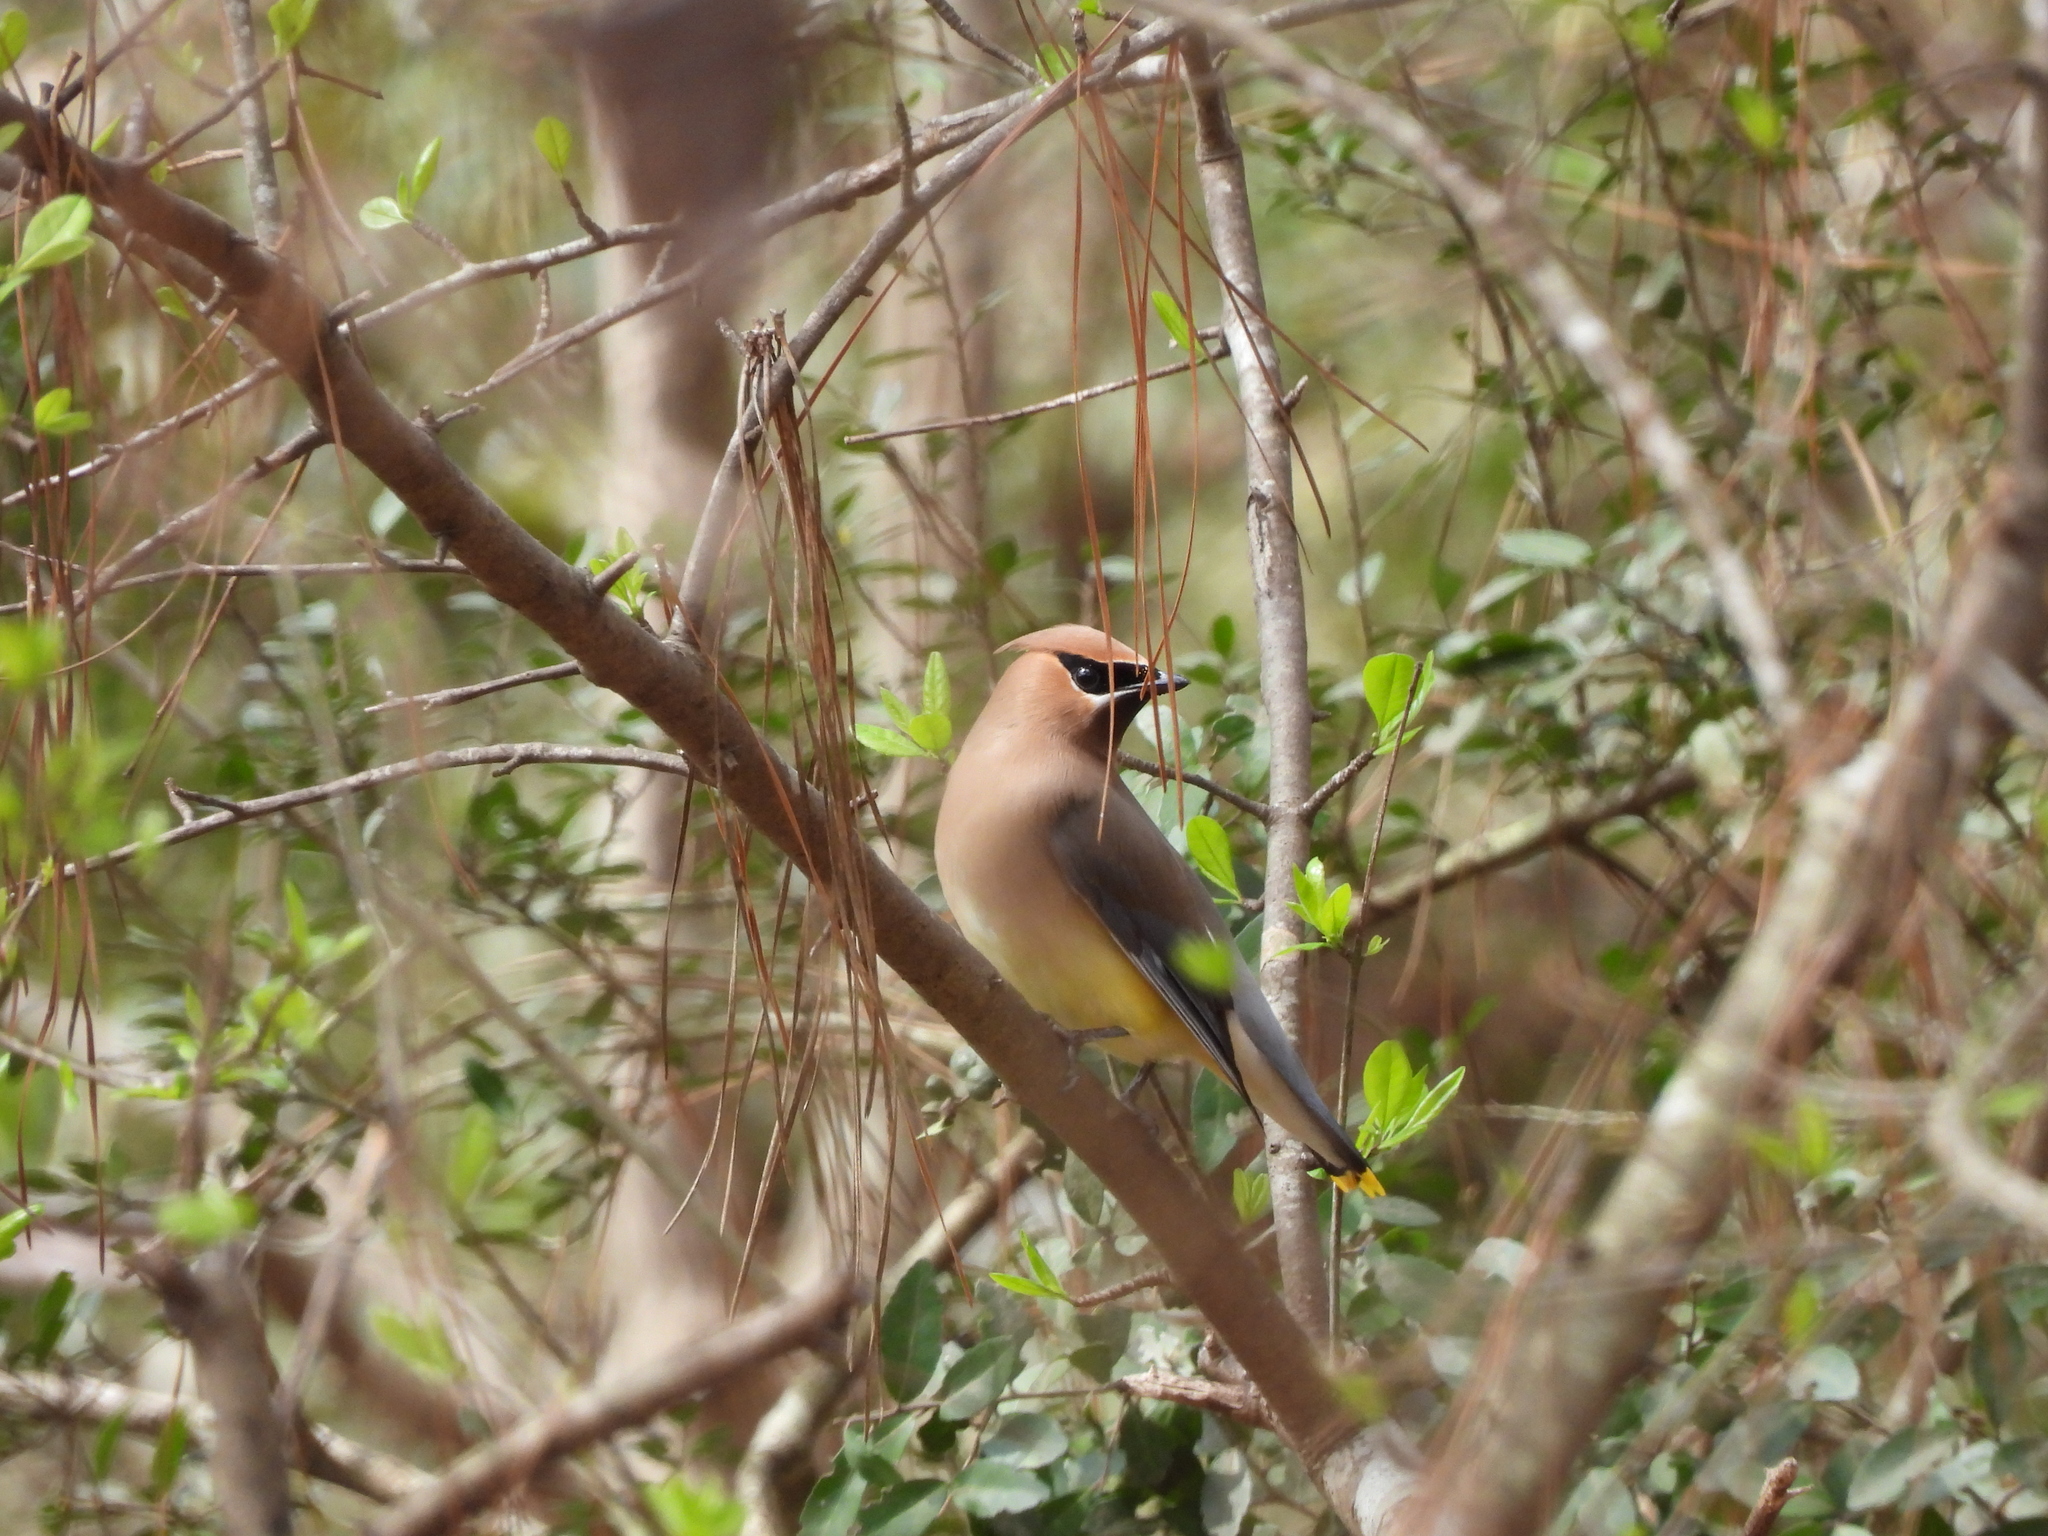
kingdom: Animalia
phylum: Chordata
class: Aves
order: Passeriformes
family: Bombycillidae
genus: Bombycilla
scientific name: Bombycilla cedrorum
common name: Cedar waxwing
